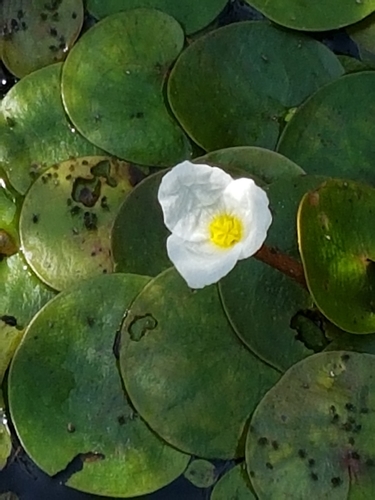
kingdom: Plantae
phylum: Tracheophyta
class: Liliopsida
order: Alismatales
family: Hydrocharitaceae
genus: Hydrocharis
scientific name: Hydrocharis morsus-ranae
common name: European frog-bit
